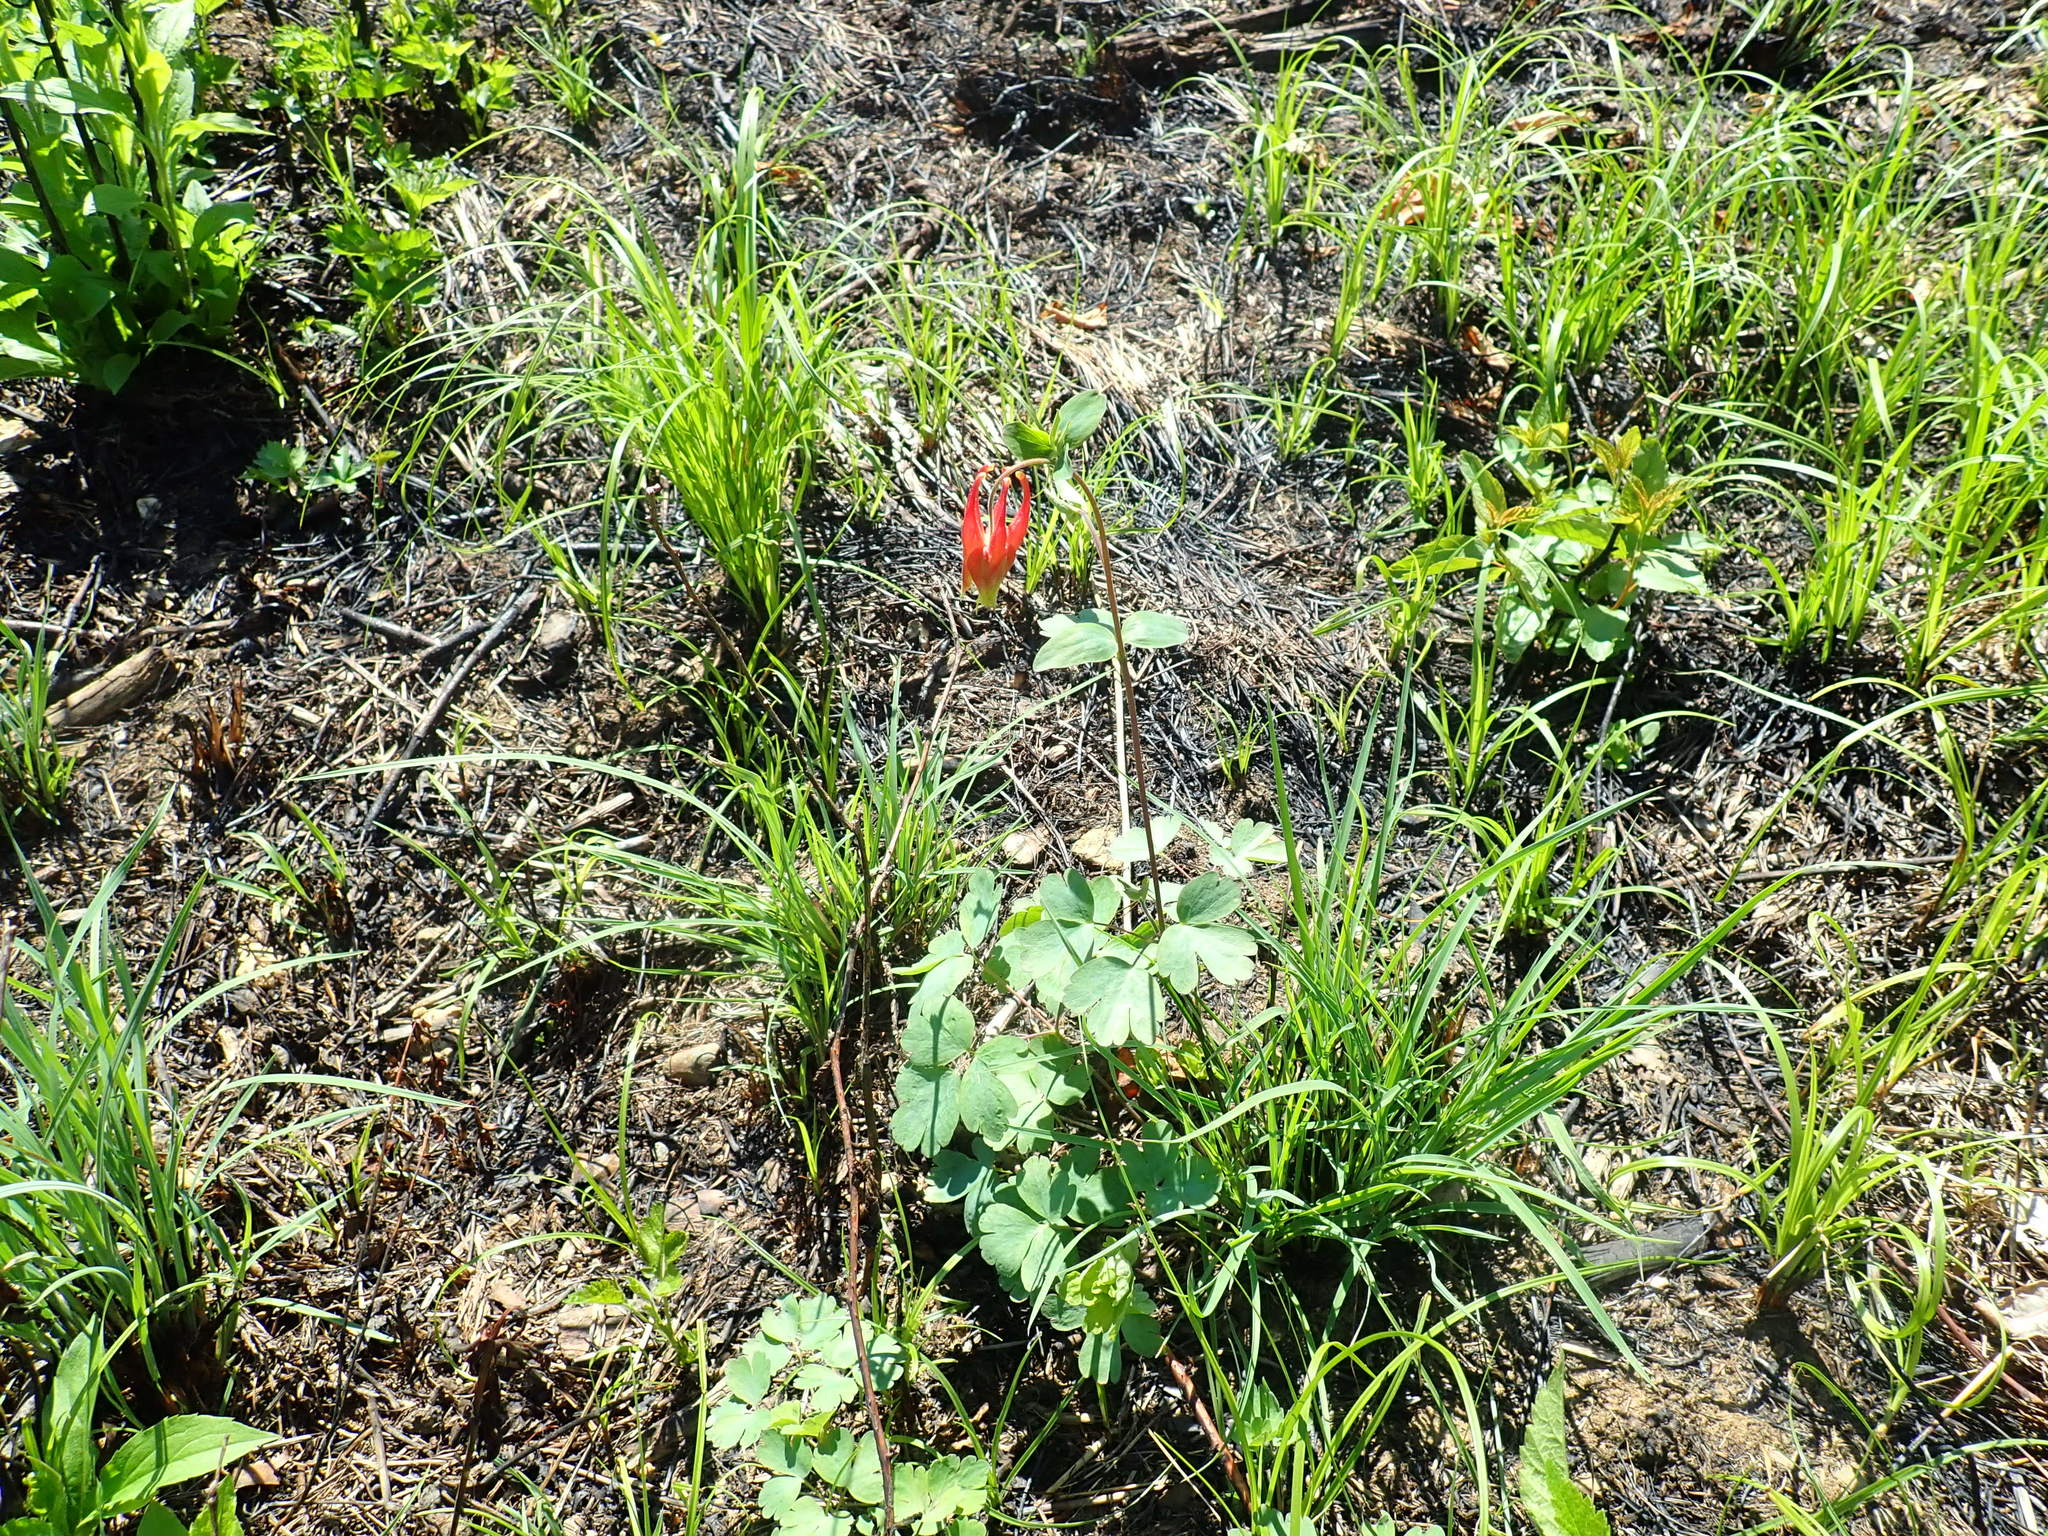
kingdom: Plantae
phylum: Tracheophyta
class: Magnoliopsida
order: Ranunculales
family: Ranunculaceae
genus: Aquilegia
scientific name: Aquilegia canadensis
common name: American columbine
